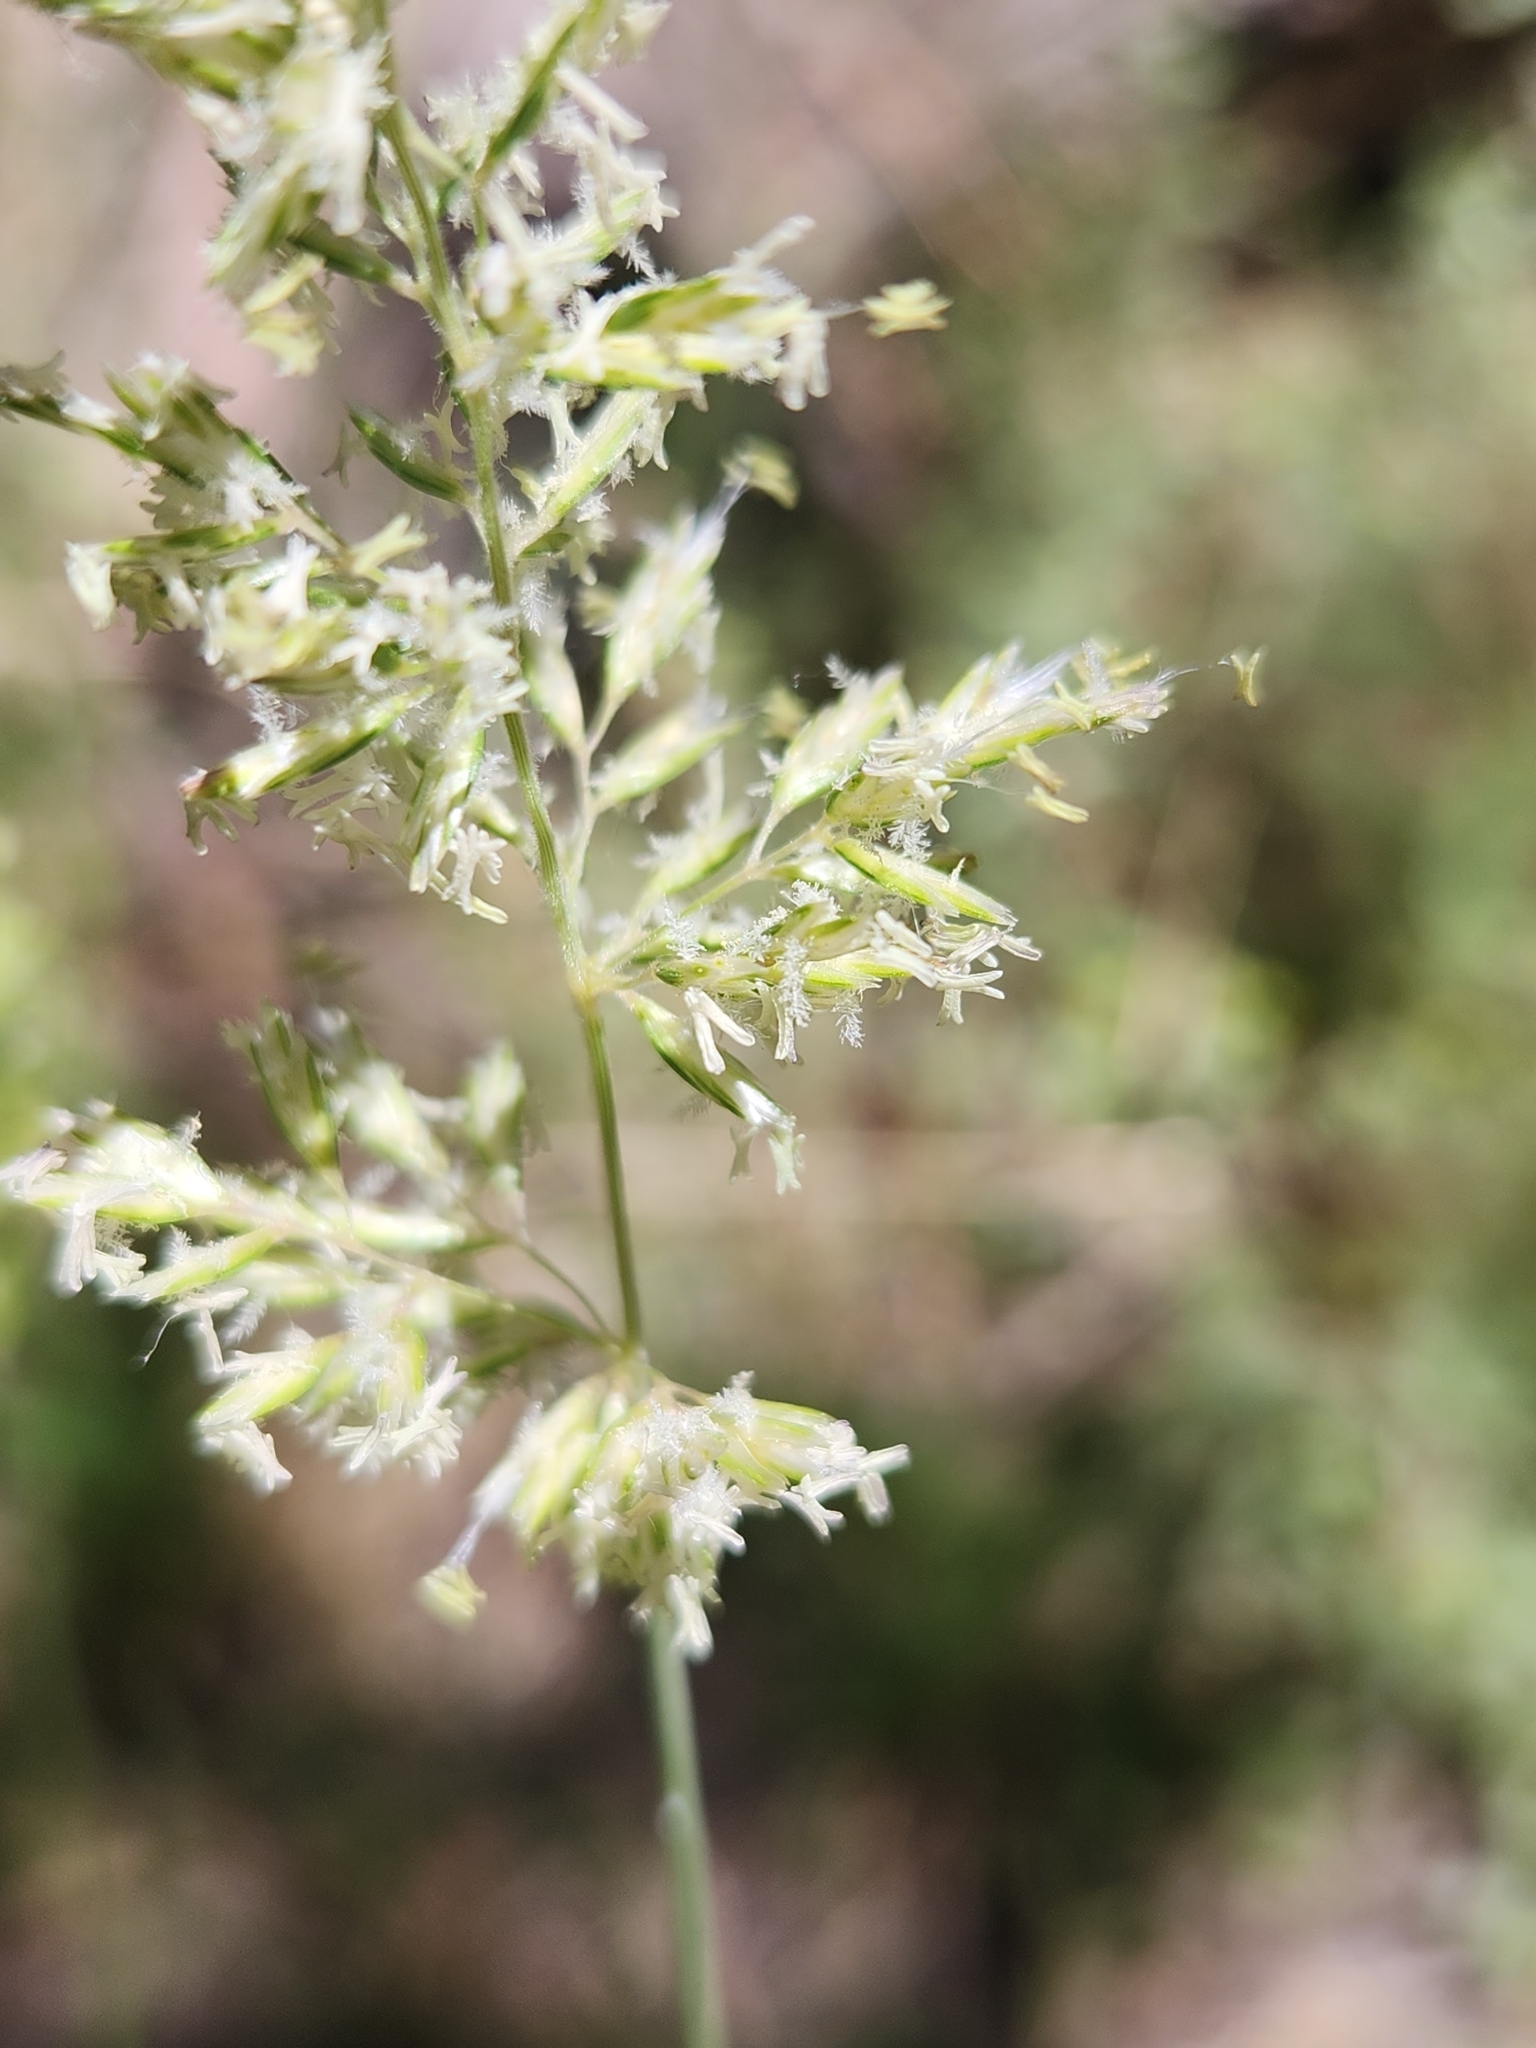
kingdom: Plantae
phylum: Tracheophyta
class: Liliopsida
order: Poales
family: Poaceae
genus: Koeleria
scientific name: Koeleria macrantha
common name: Crested hair-grass
